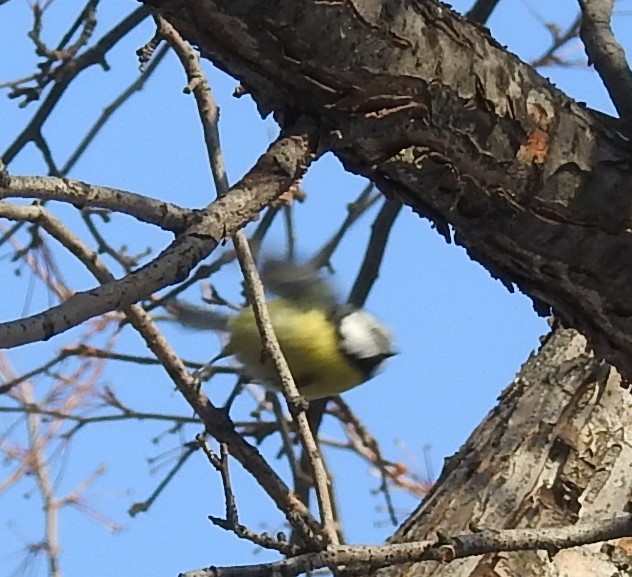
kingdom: Animalia
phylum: Chordata
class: Aves
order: Passeriformes
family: Paridae
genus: Cyanistes
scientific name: Cyanistes caeruleus
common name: Eurasian blue tit
